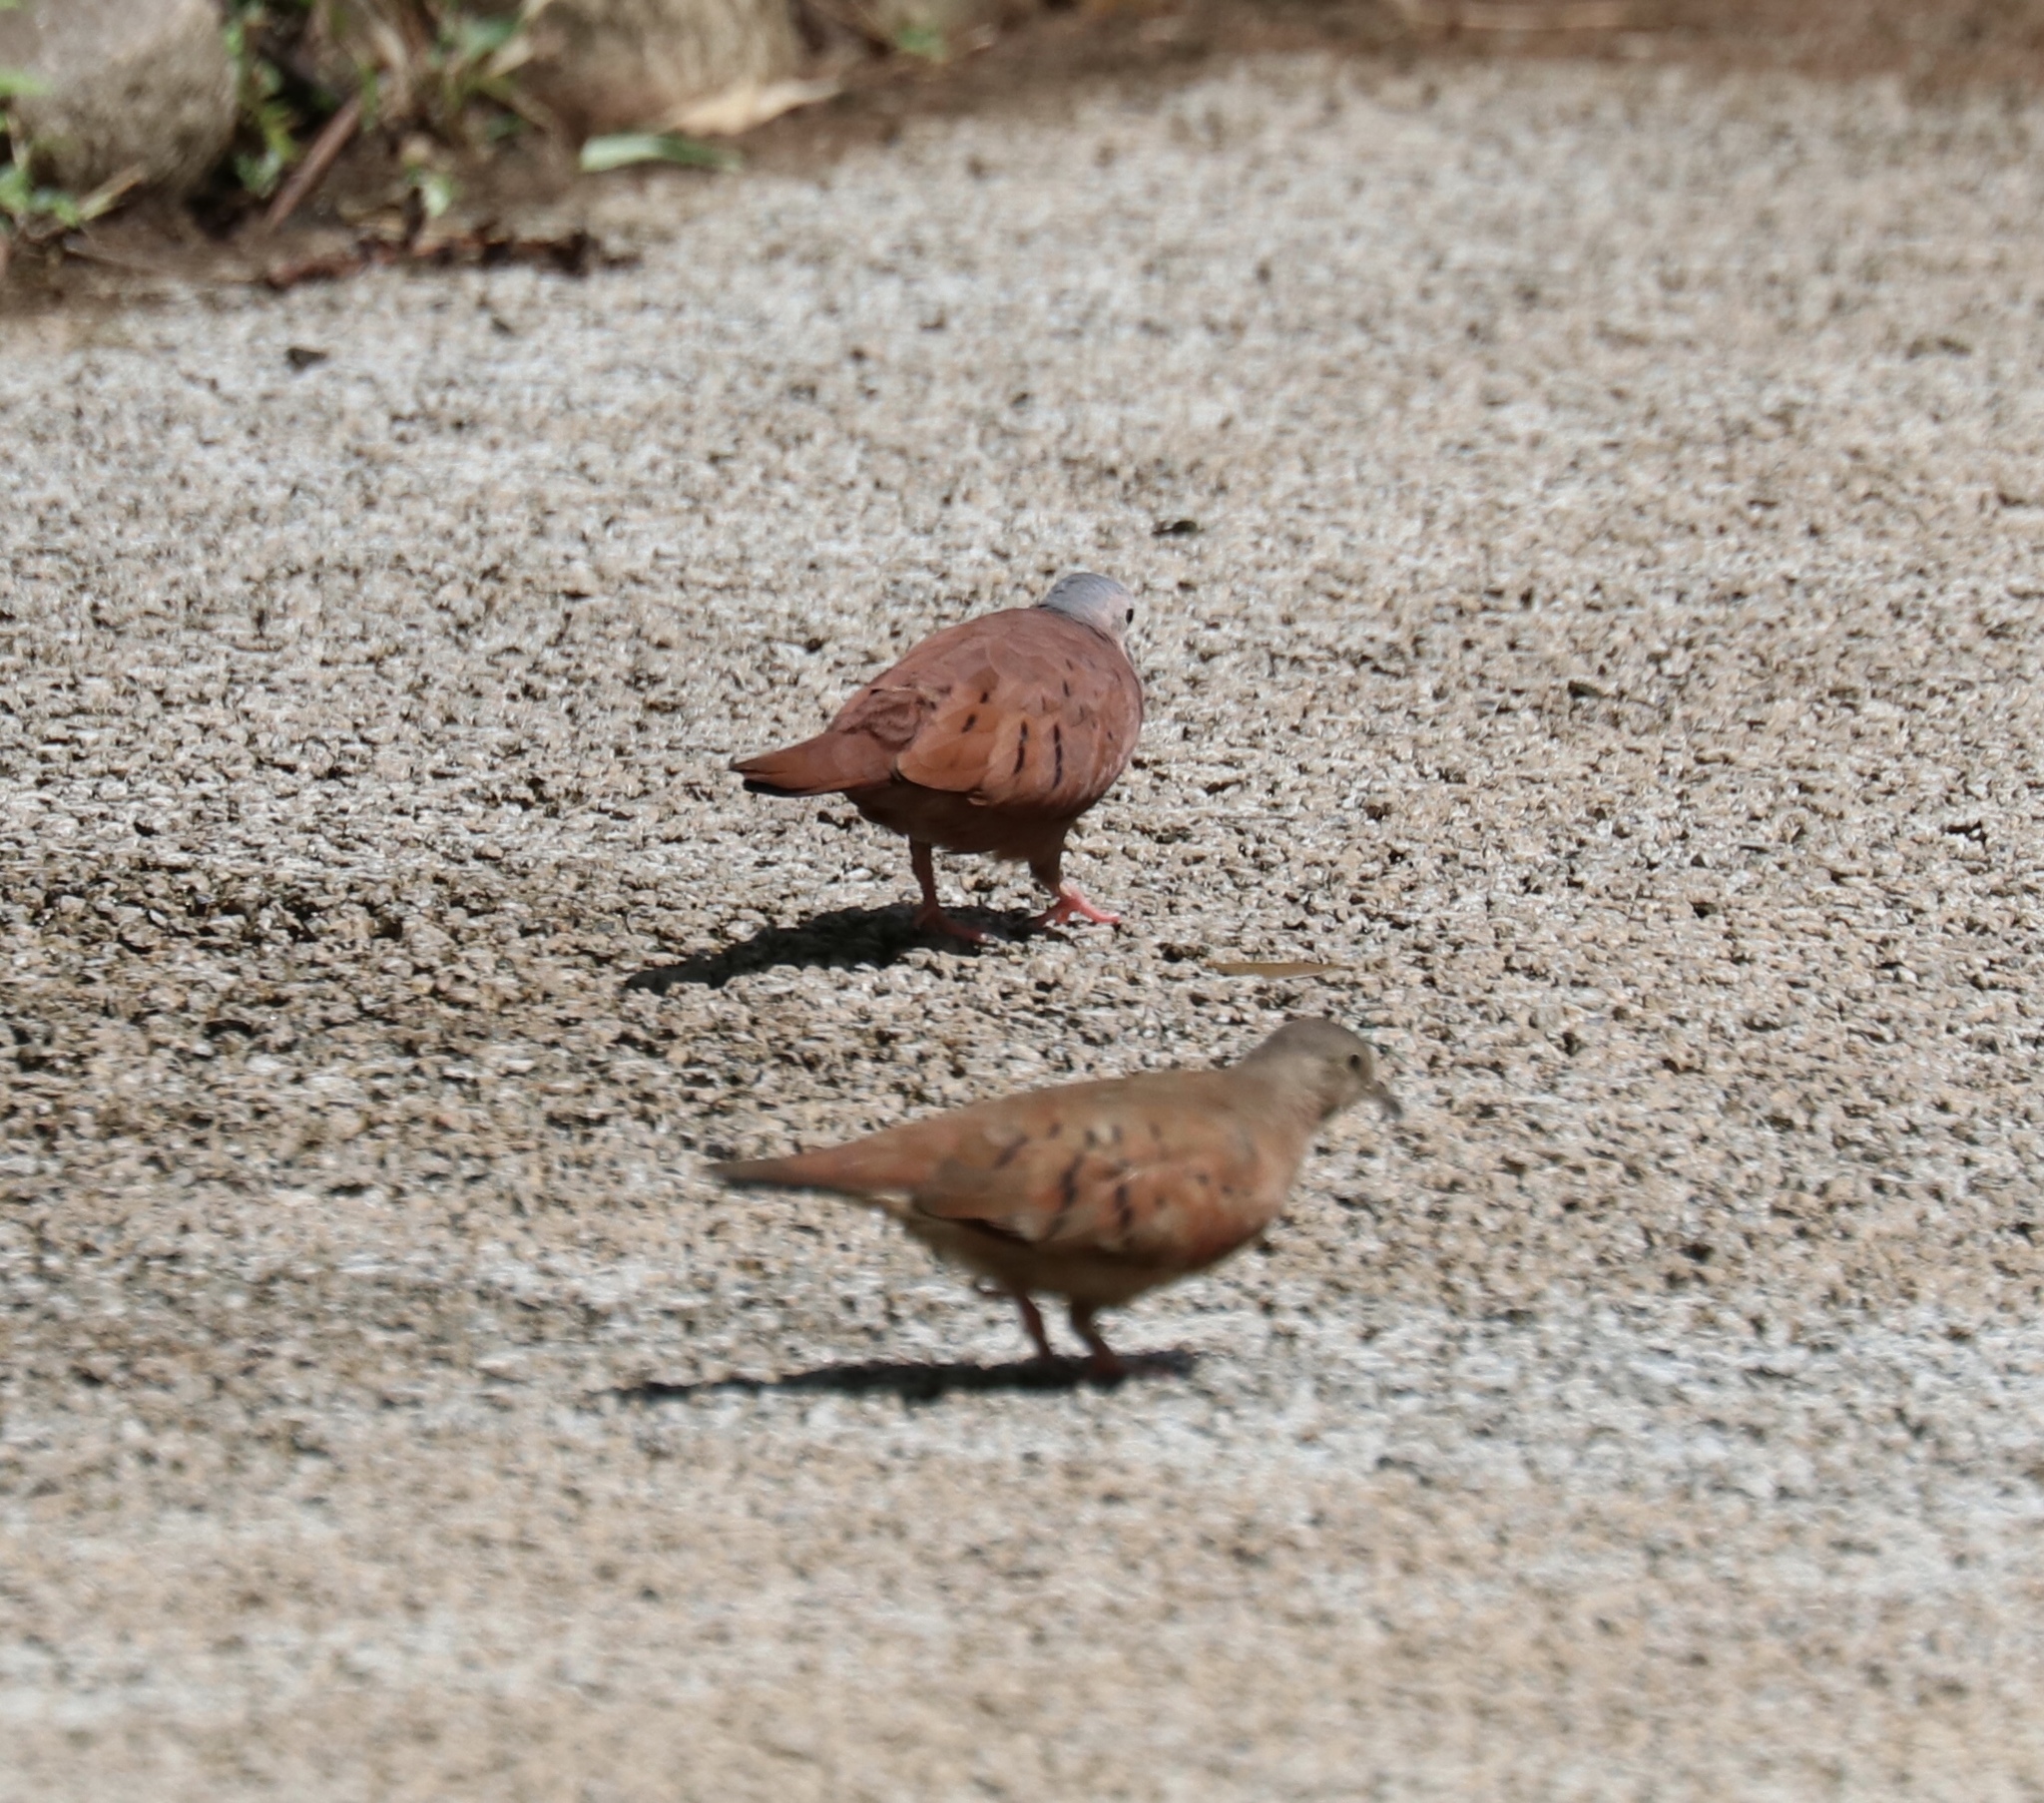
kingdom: Animalia
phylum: Chordata
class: Aves
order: Columbiformes
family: Columbidae
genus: Columbina
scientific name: Columbina talpacoti
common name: Ruddy ground dove
